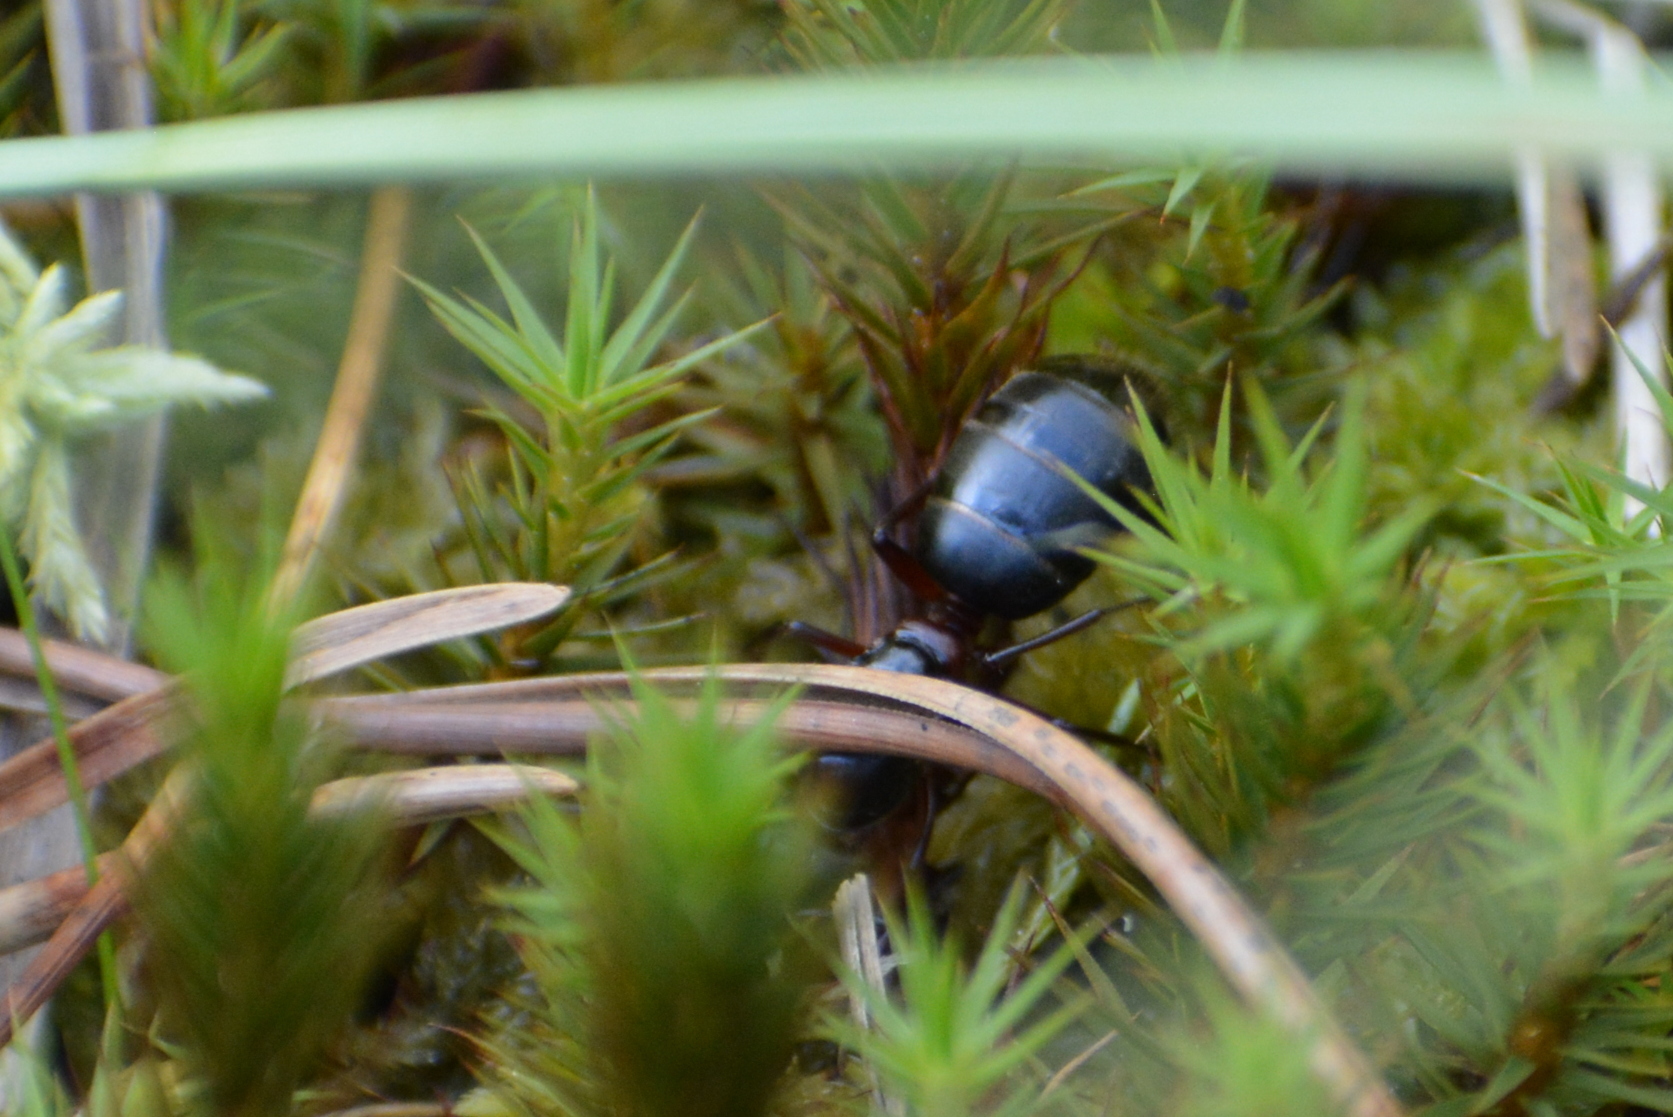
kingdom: Animalia
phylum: Arthropoda
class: Insecta
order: Hymenoptera
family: Formicidae
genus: Camponotus
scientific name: Camponotus herculeanus
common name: Hercules ant
